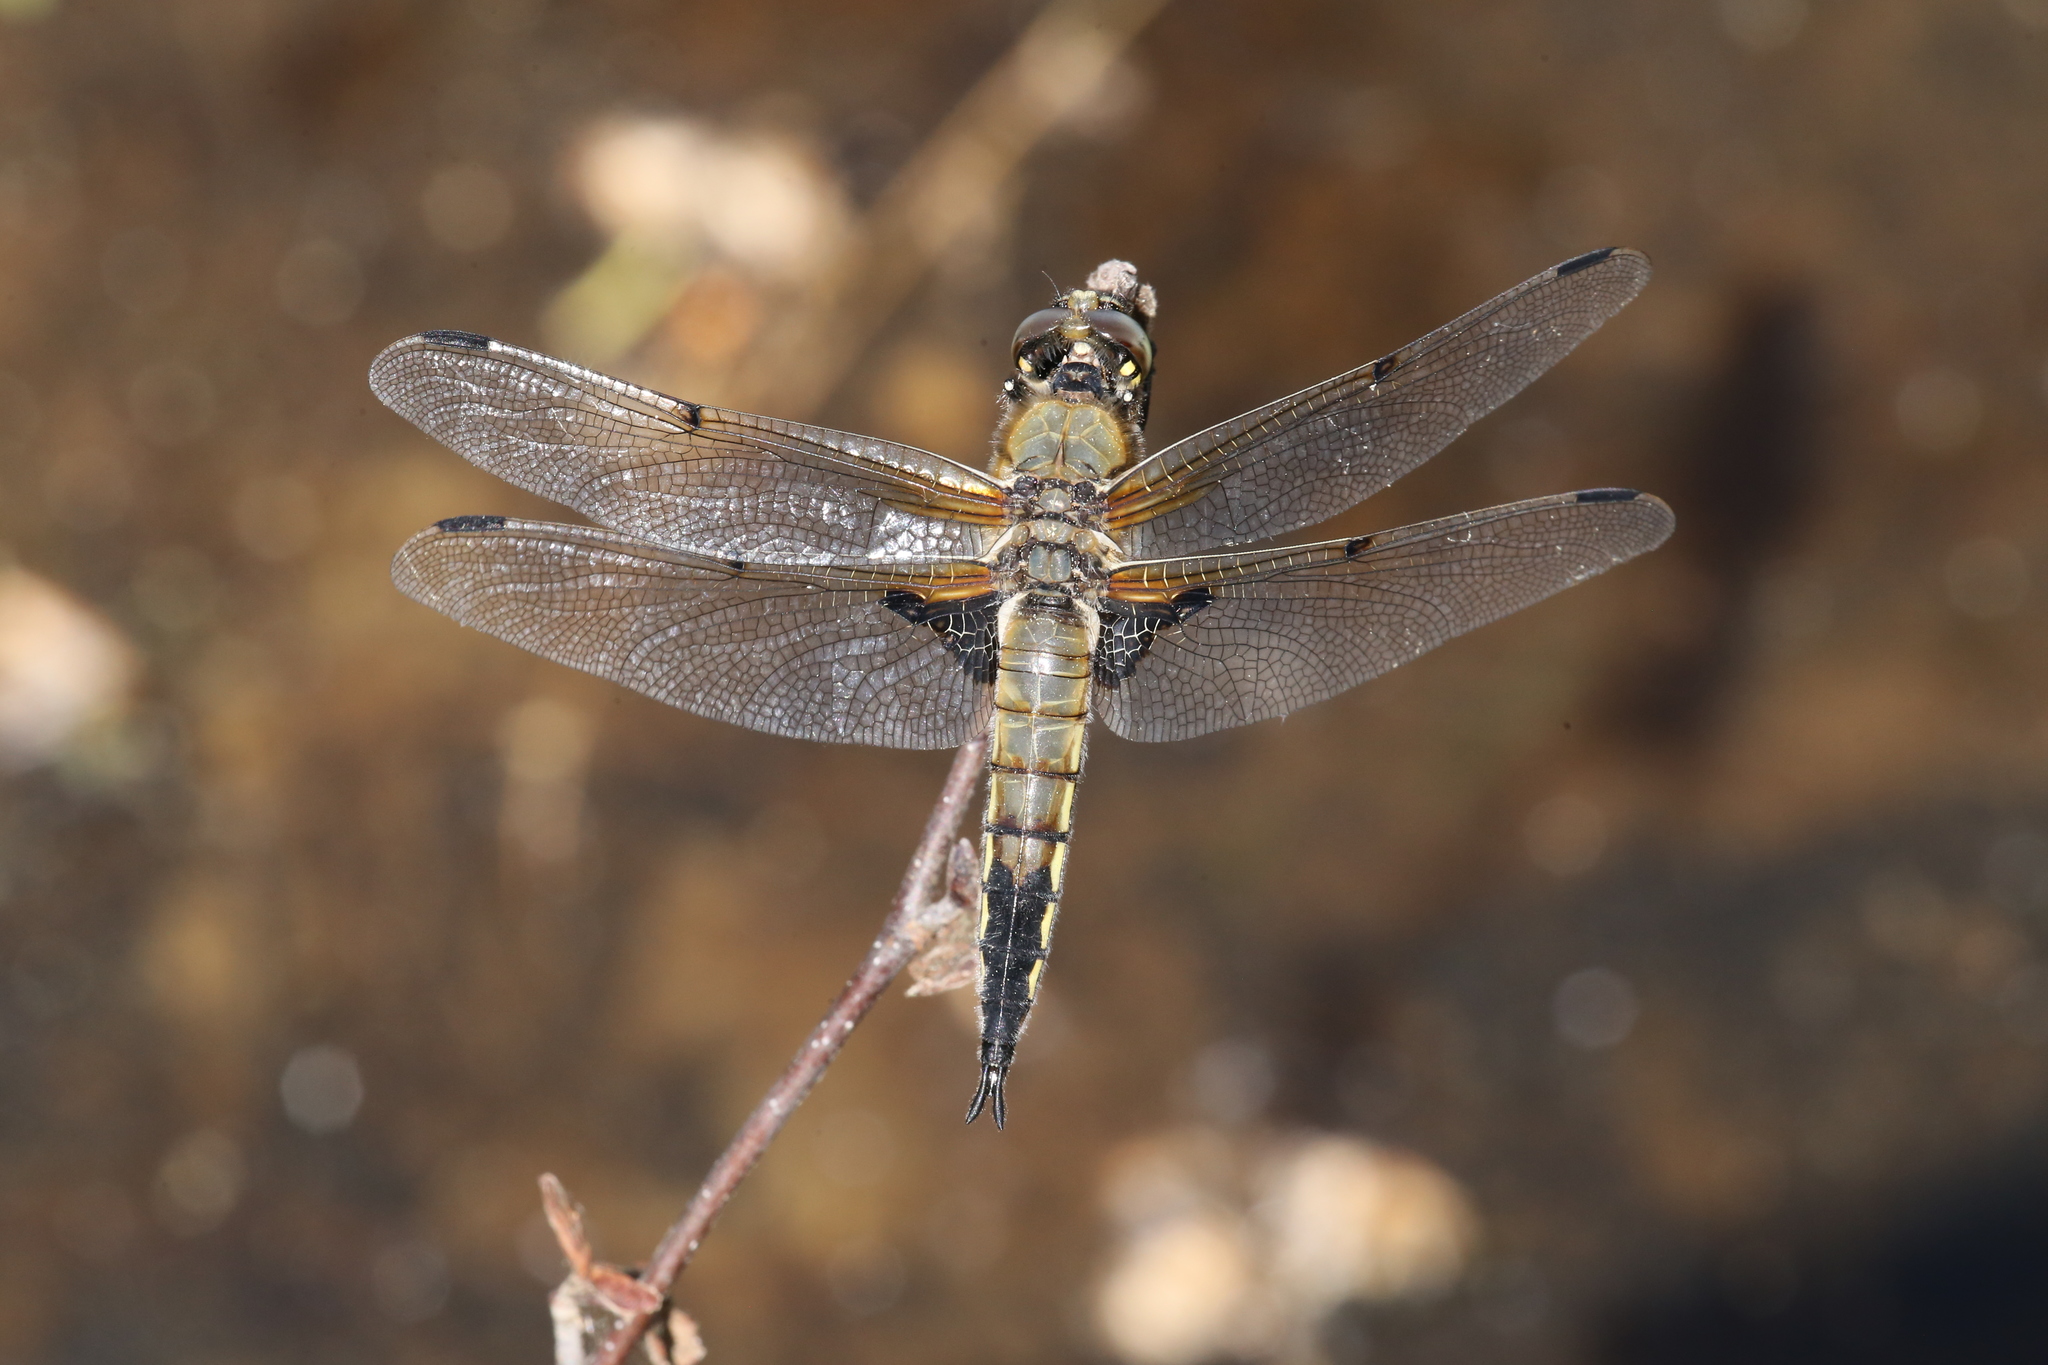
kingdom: Animalia
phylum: Arthropoda
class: Insecta
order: Odonata
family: Libellulidae
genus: Libellula
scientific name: Libellula quadrimaculata
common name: Four-spotted chaser
